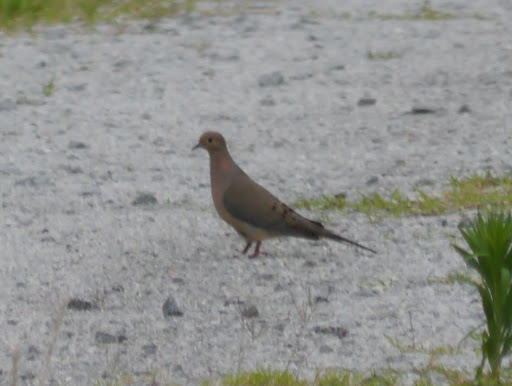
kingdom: Animalia
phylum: Chordata
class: Aves
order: Columbiformes
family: Columbidae
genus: Zenaida
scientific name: Zenaida macroura
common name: Mourning dove
